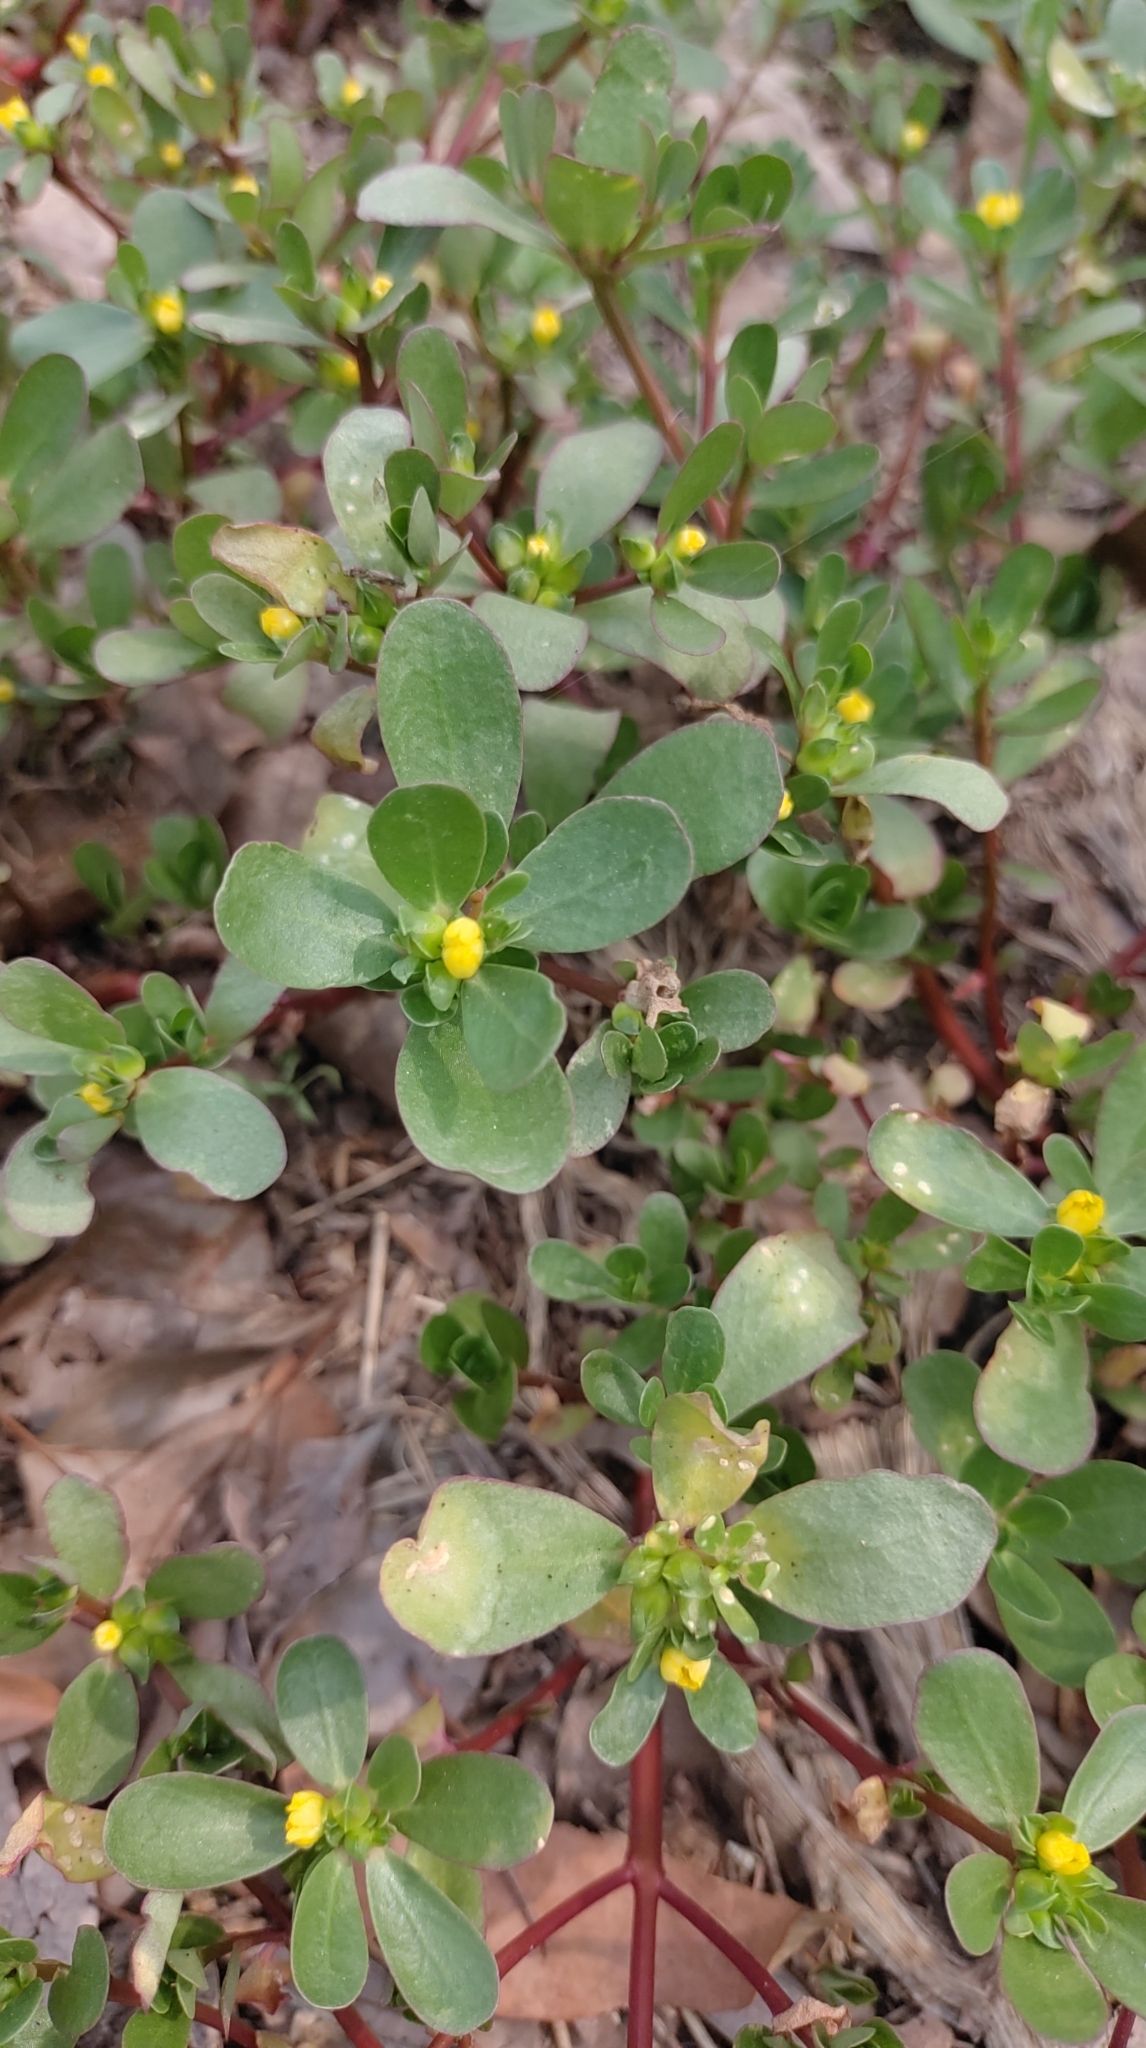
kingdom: Plantae
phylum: Tracheophyta
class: Magnoliopsida
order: Caryophyllales
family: Portulacaceae
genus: Portulaca
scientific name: Portulaca oleracea
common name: Common purslane
